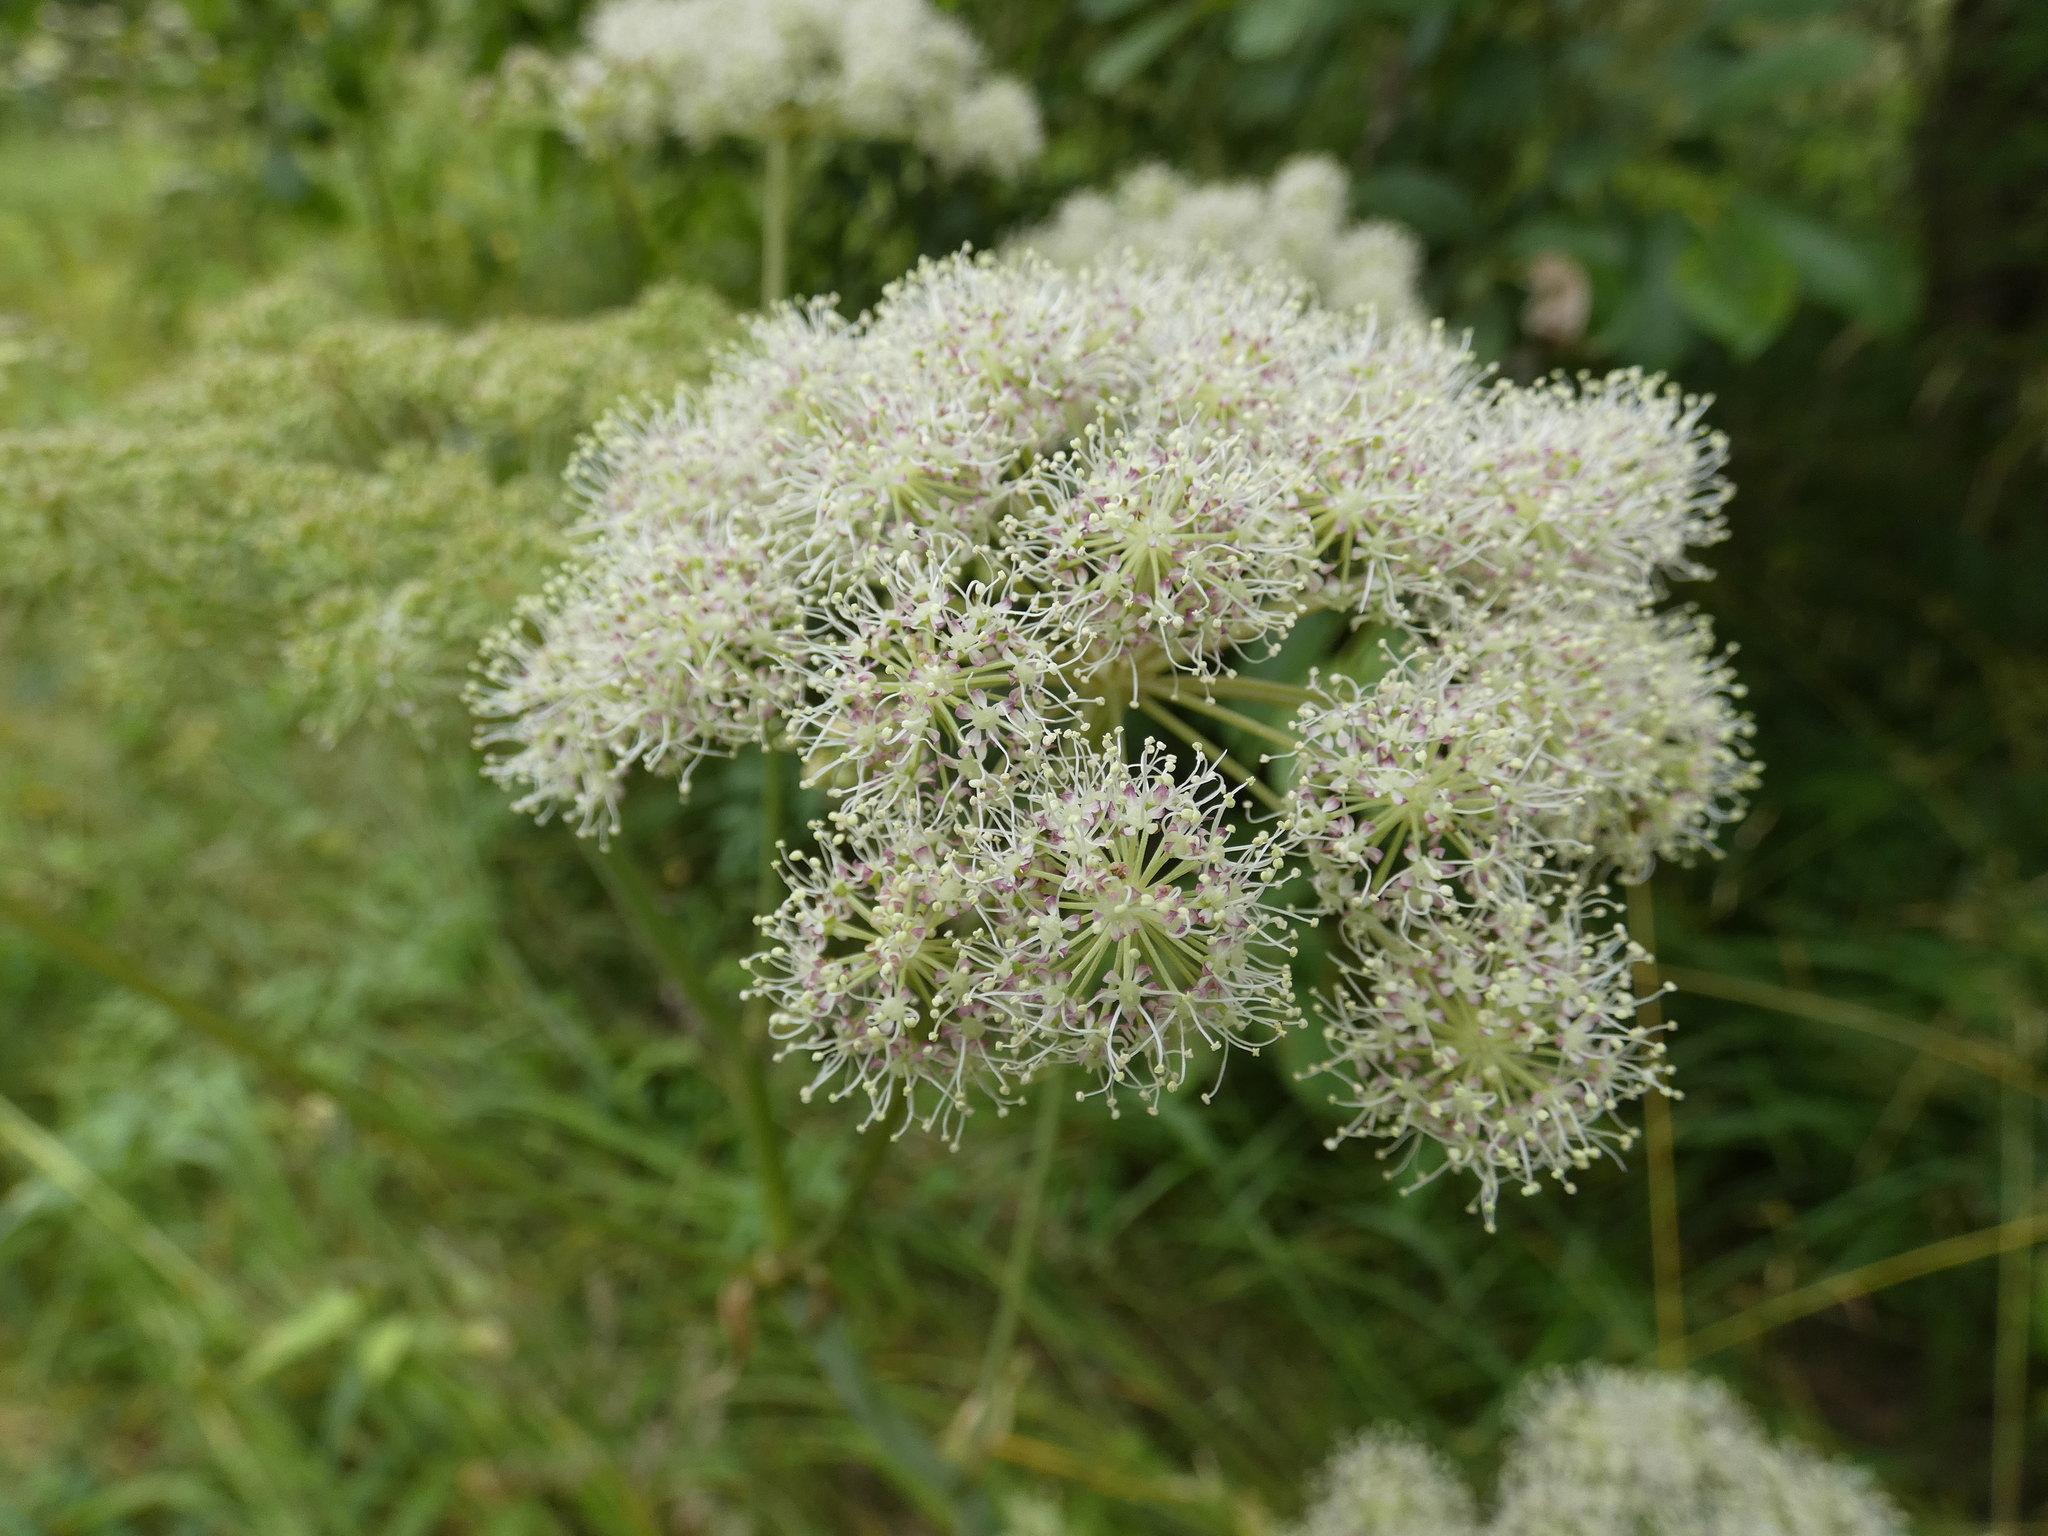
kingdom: Plantae
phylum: Tracheophyta
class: Magnoliopsida
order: Apiales
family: Apiaceae
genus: Angelica
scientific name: Angelica sylvestris
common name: Wild angelica
